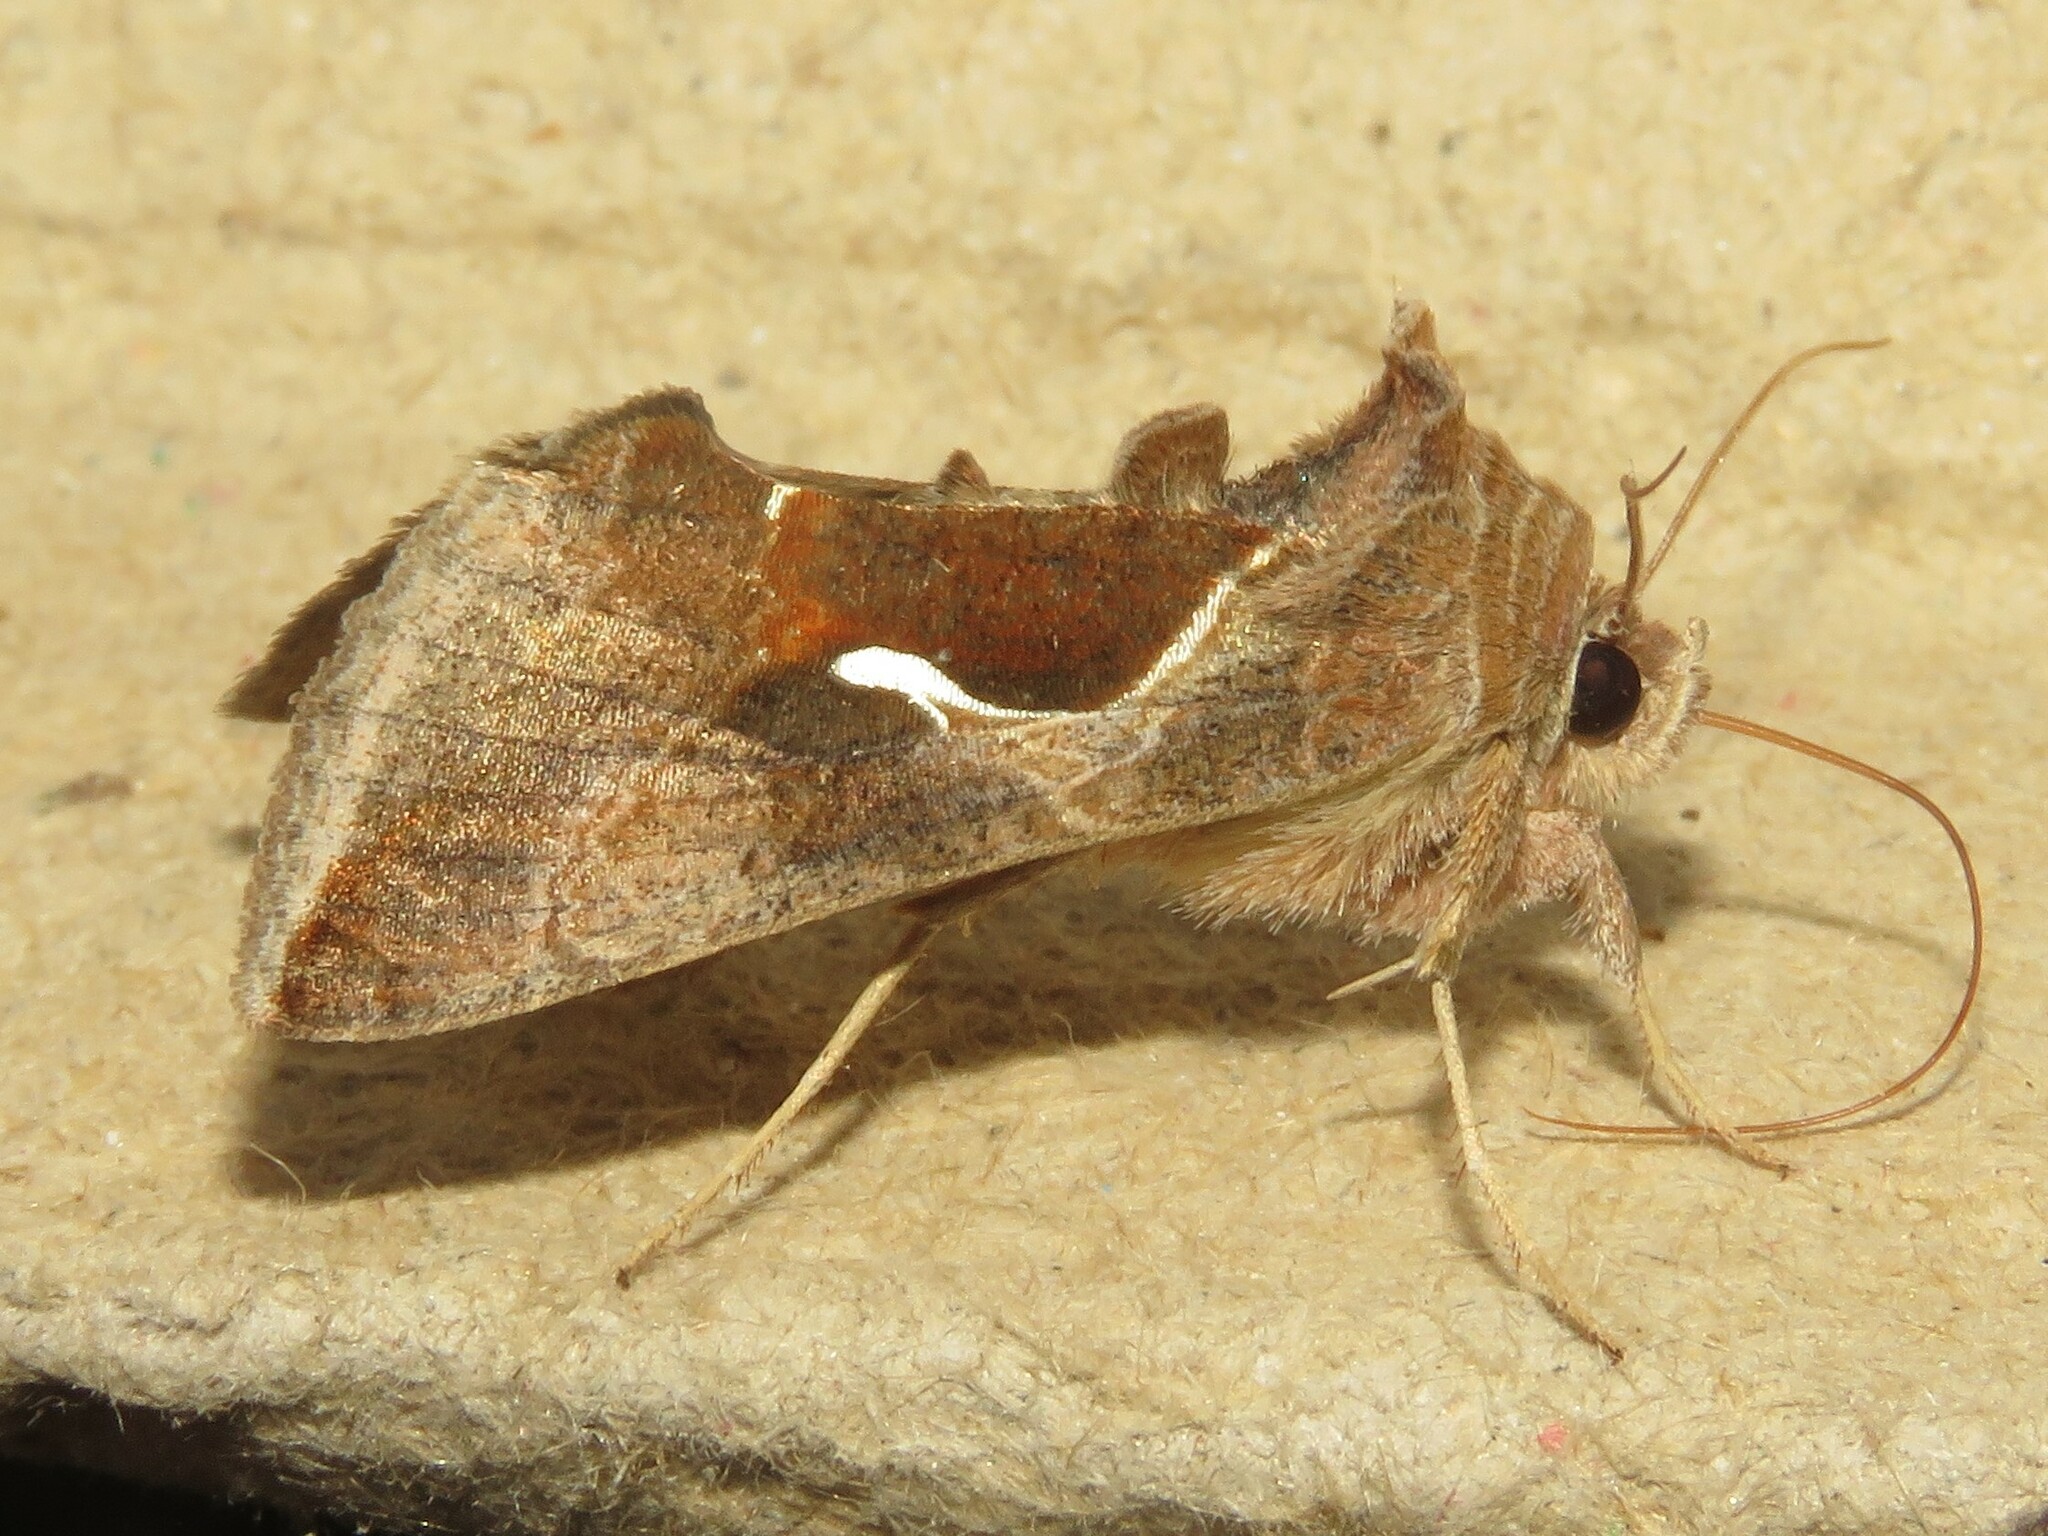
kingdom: Animalia
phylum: Arthropoda
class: Insecta
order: Lepidoptera
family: Noctuidae
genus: Anagrapha
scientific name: Anagrapha falcifera
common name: Celery looper
